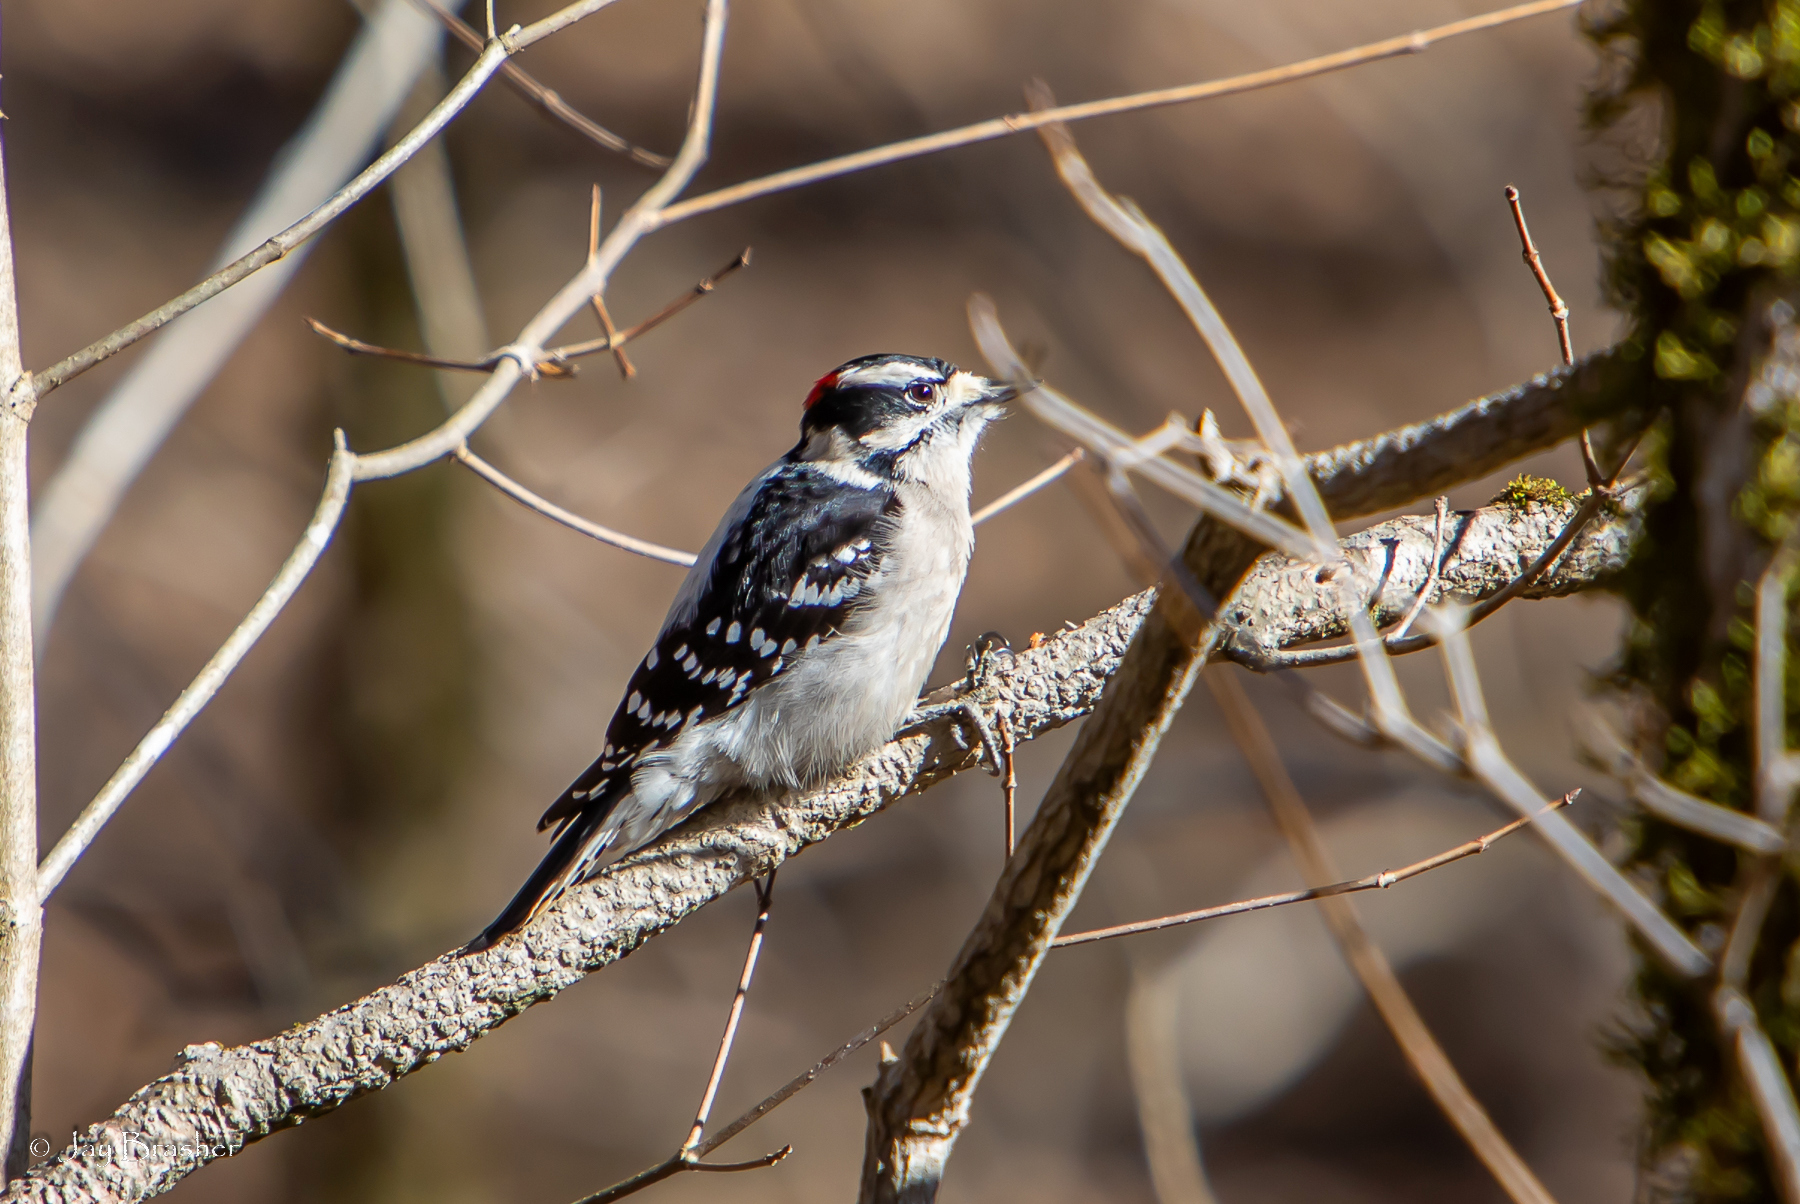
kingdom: Animalia
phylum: Chordata
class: Aves
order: Piciformes
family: Picidae
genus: Dryobates
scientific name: Dryobates pubescens
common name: Downy woodpecker
